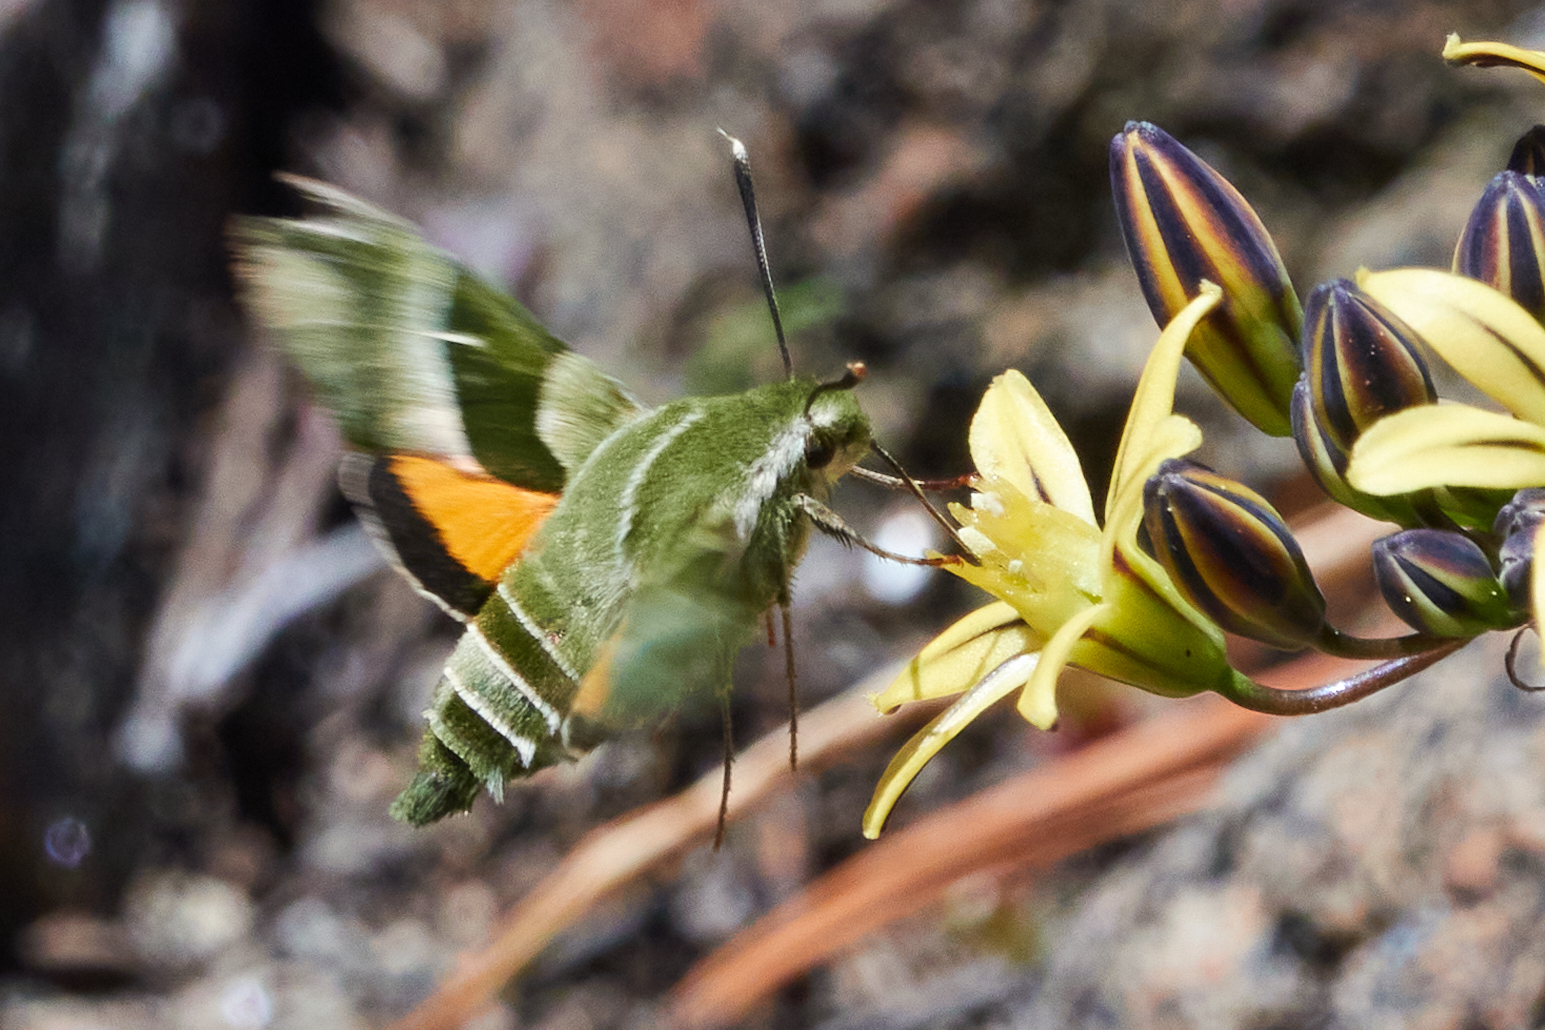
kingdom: Animalia
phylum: Arthropoda
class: Insecta
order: Lepidoptera
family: Sphingidae
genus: Proserpinus
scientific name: Proserpinus clarkiae
